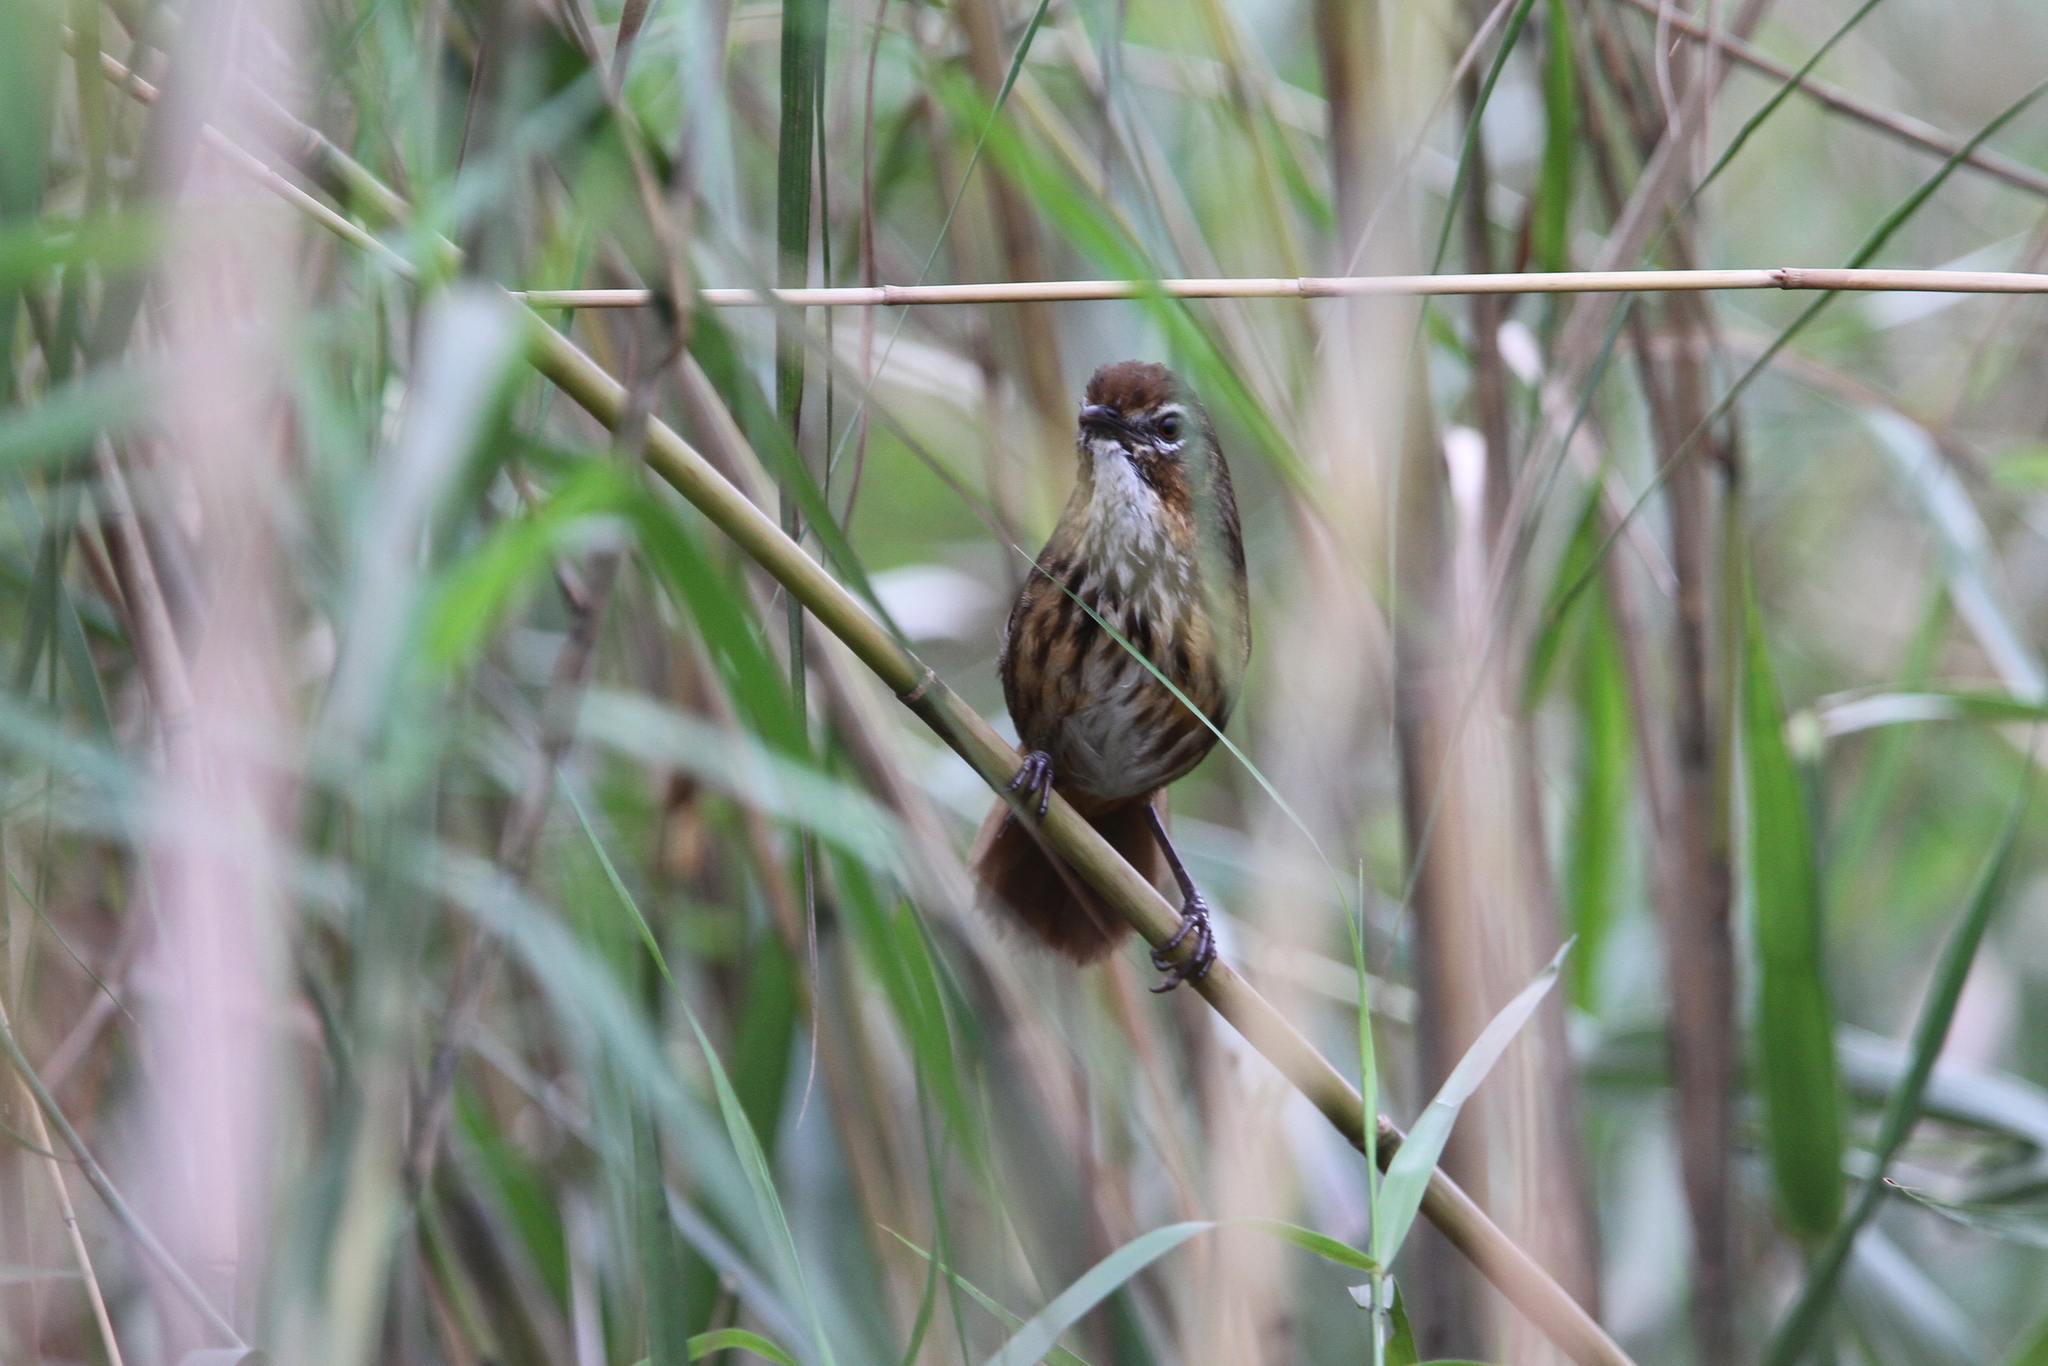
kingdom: Animalia
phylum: Chordata
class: Aves
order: Passeriformes
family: Pellorneidae
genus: Pellorneum
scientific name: Pellorneum palustre
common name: Marsh babbler
